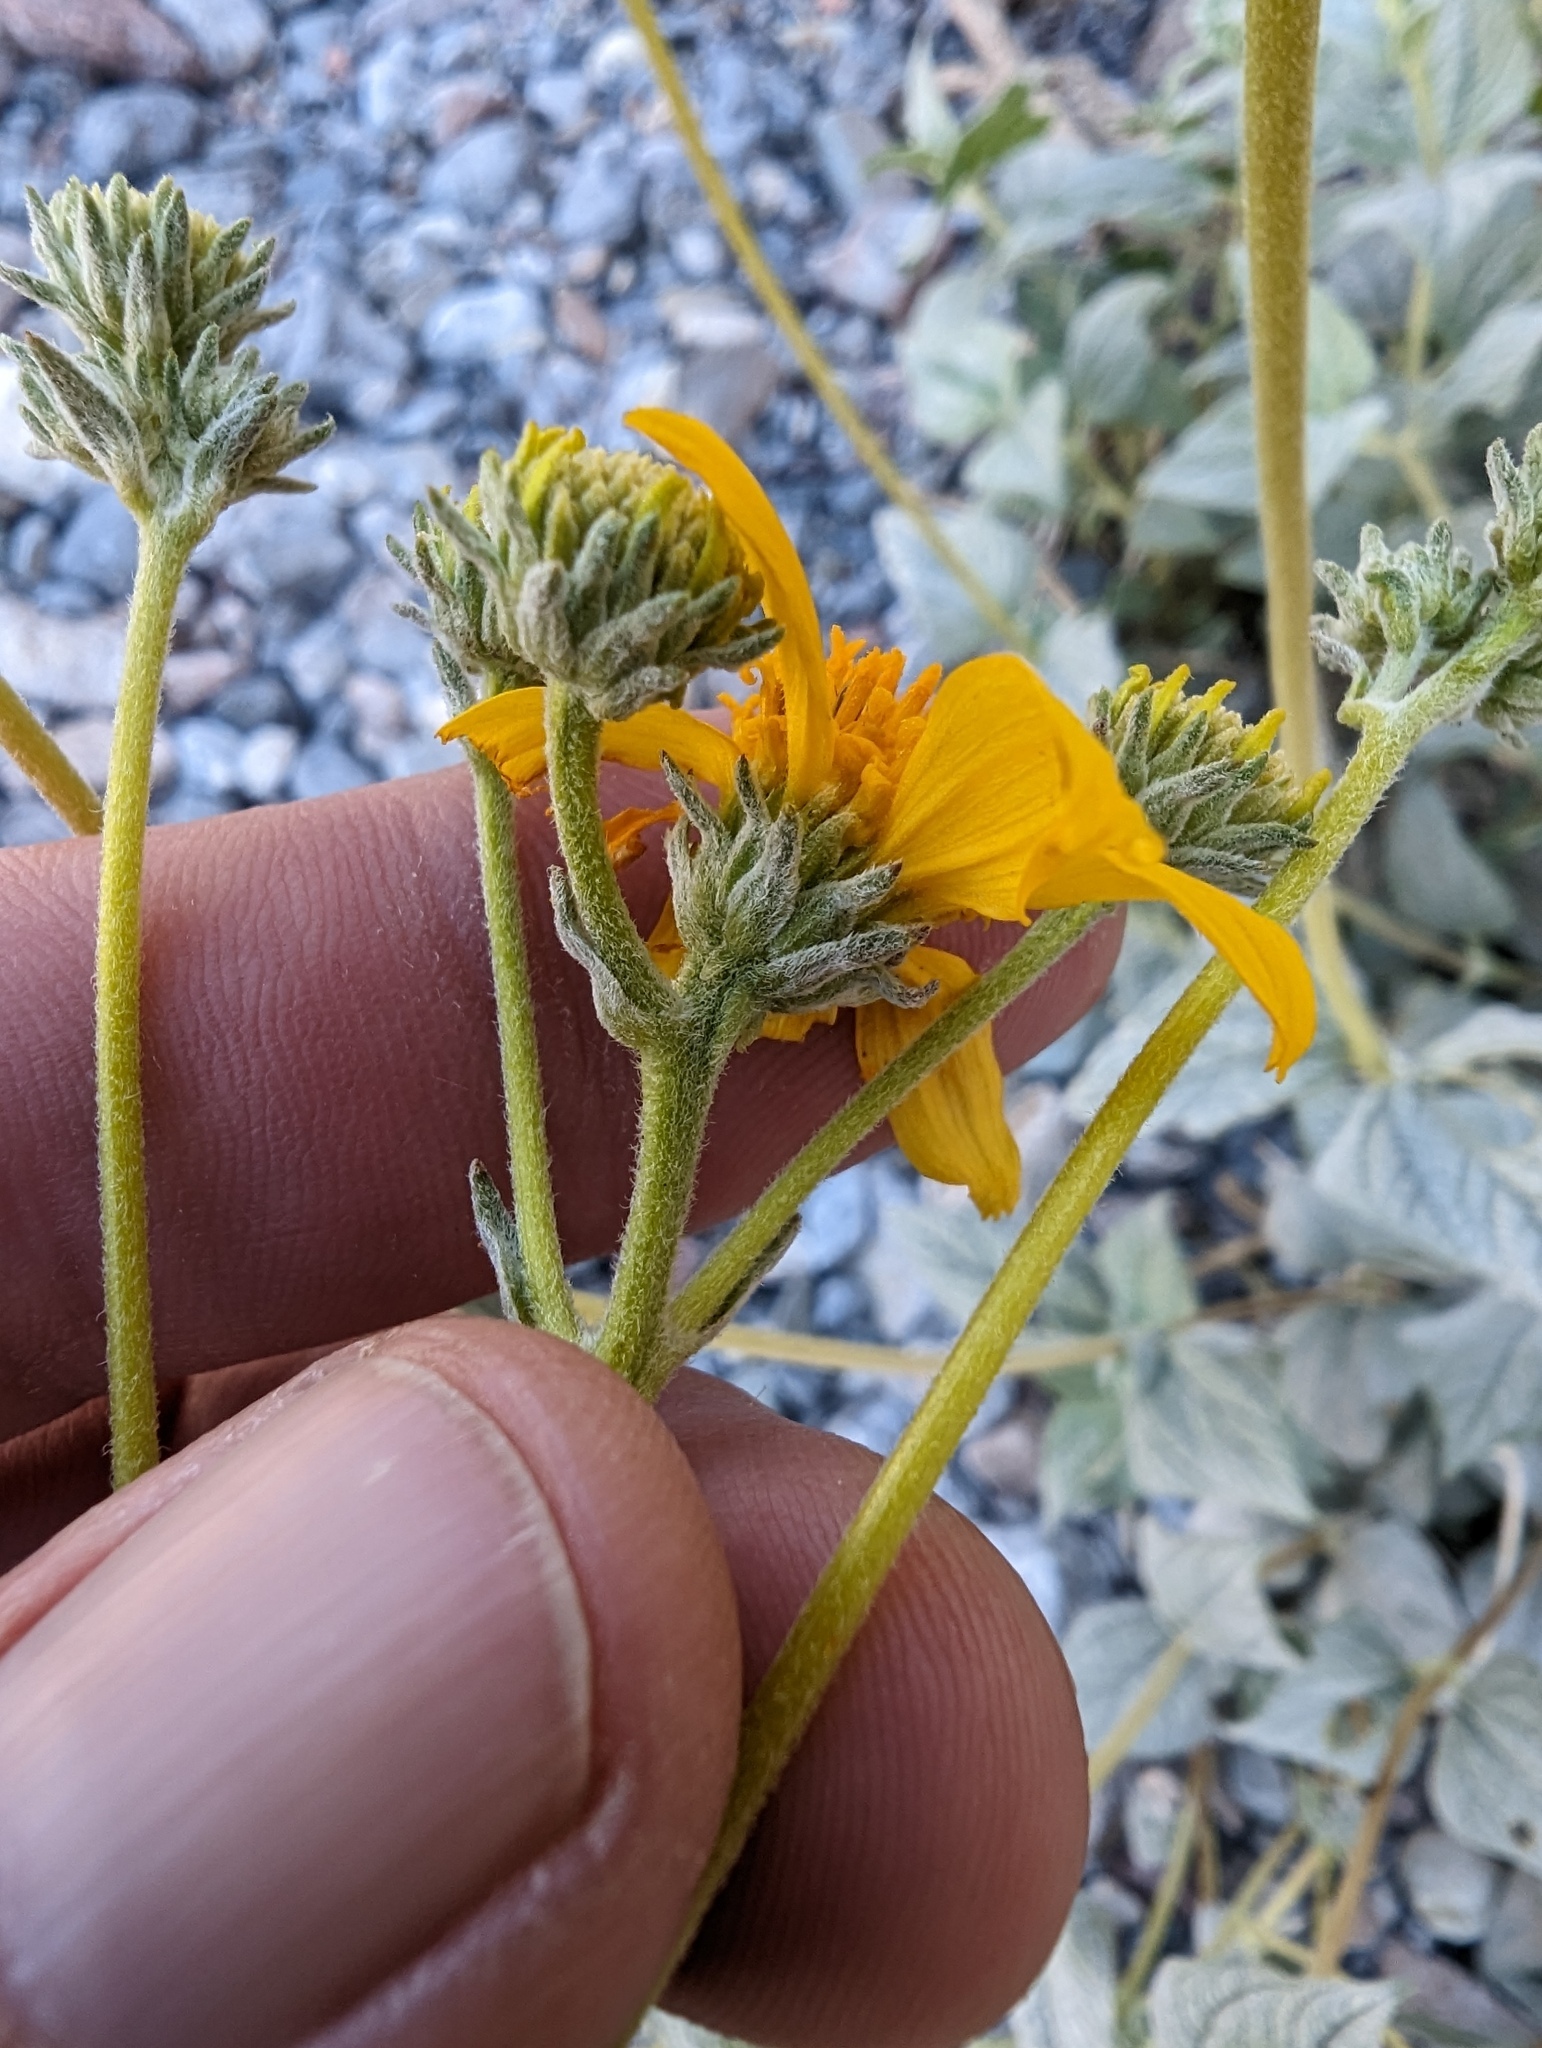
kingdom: Plantae
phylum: Tracheophyta
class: Magnoliopsida
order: Asterales
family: Asteraceae
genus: Bahiopsis
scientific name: Bahiopsis reticulata
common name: Death valley goldeneye
